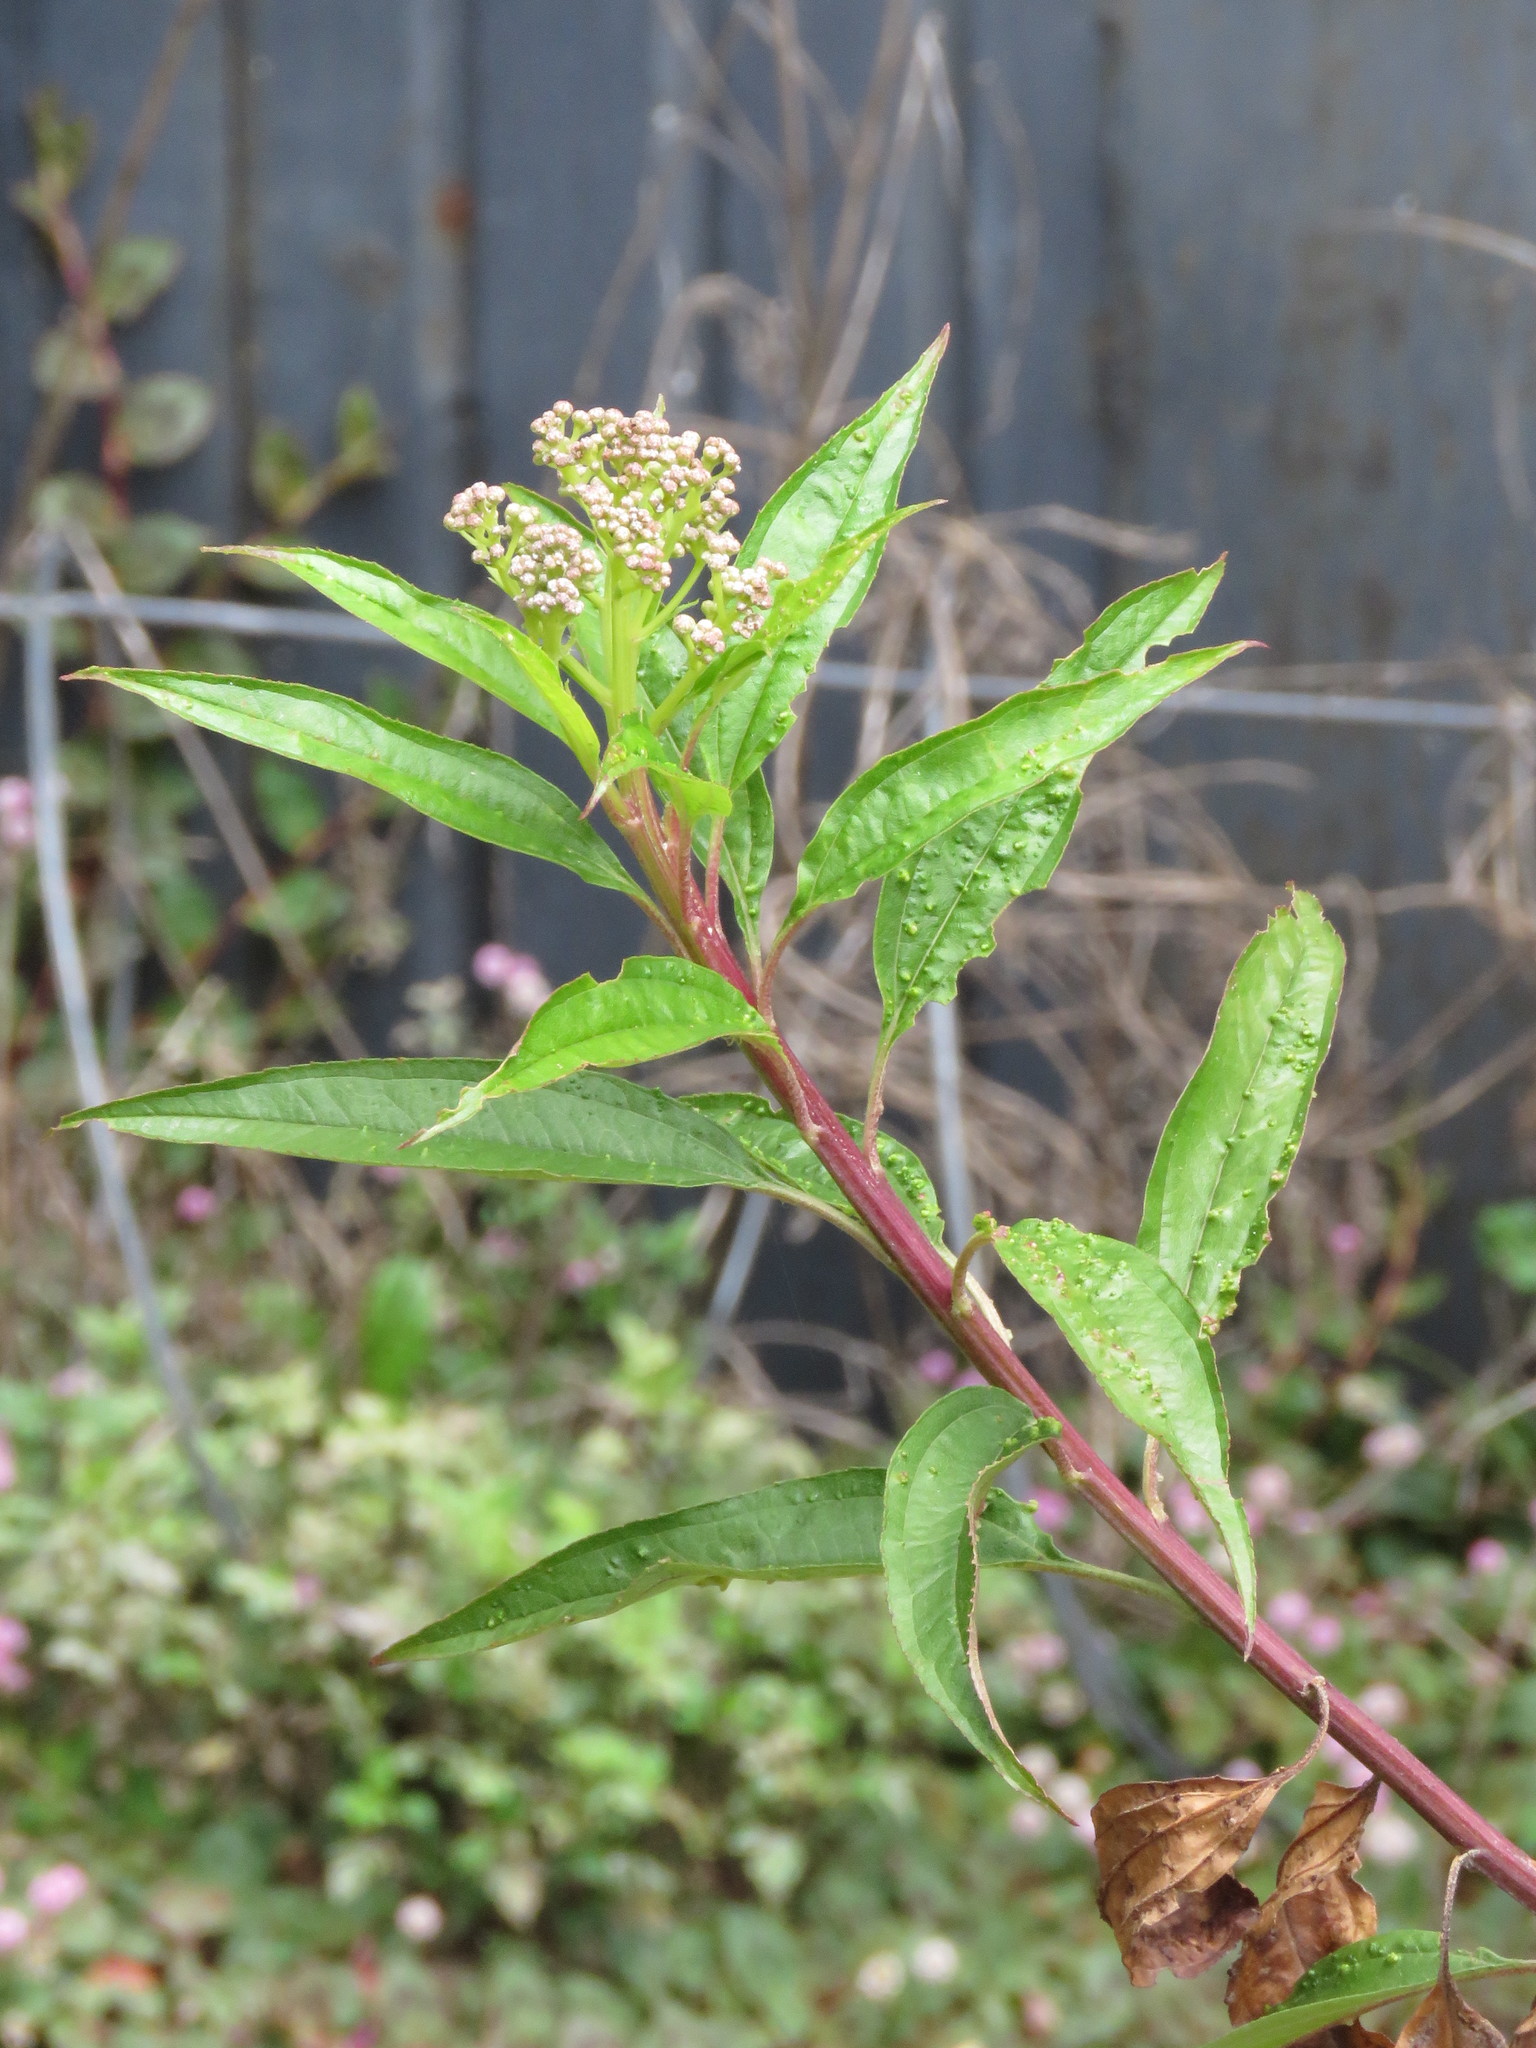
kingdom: Plantae
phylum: Tracheophyta
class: Magnoliopsida
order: Asterales
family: Asteraceae
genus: Baccharis
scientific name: Baccharis latifolia
